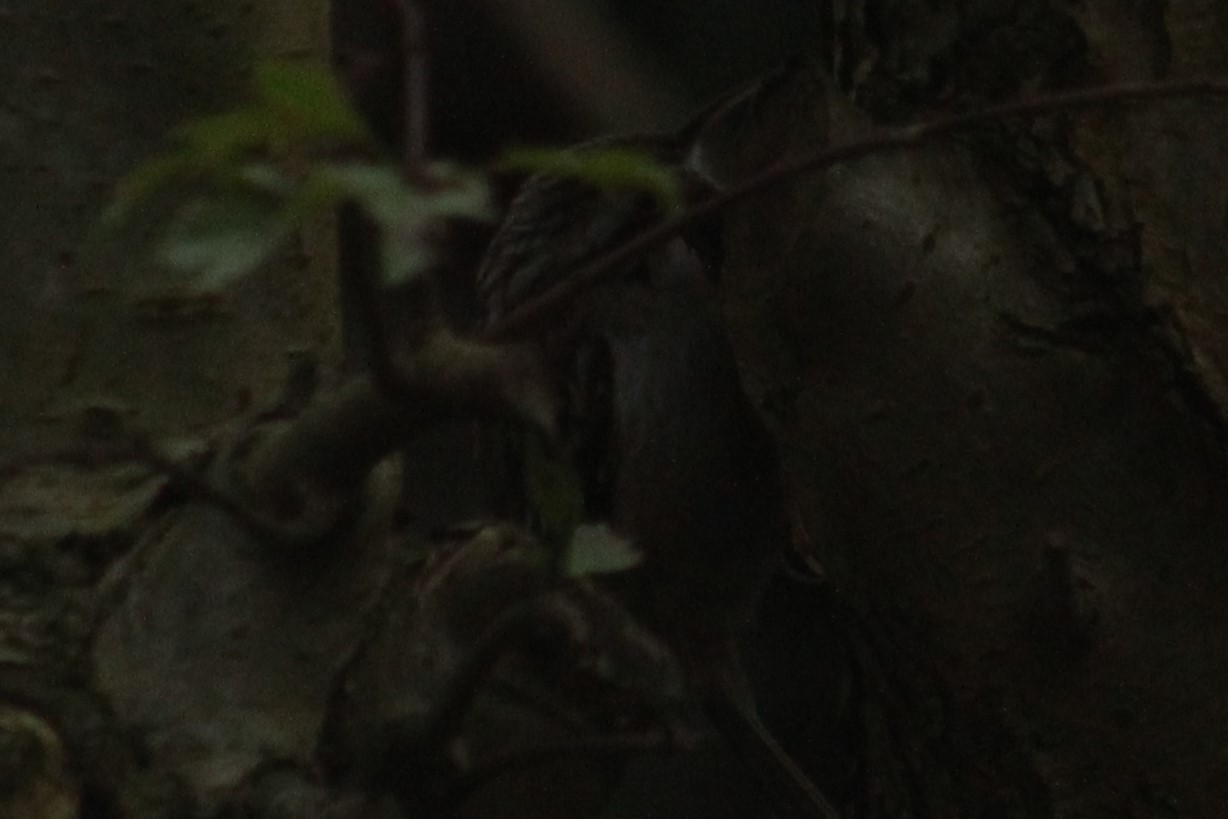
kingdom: Animalia
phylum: Chordata
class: Aves
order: Passeriformes
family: Certhiidae
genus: Certhia
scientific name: Certhia brachydactyla
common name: Short-toed treecreeper
